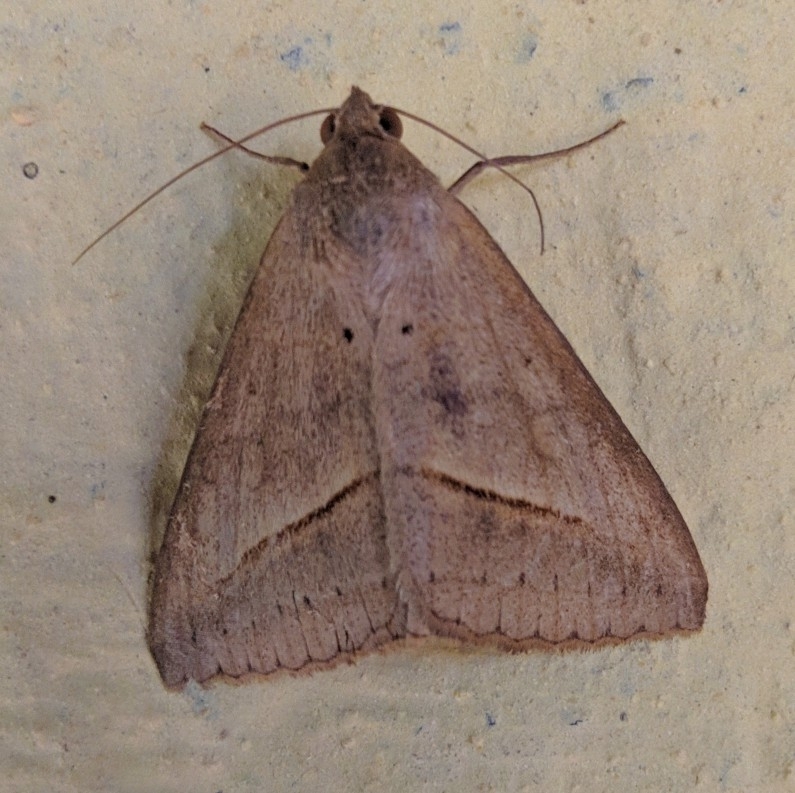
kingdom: Animalia
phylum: Arthropoda
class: Insecta
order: Lepidoptera
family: Erebidae
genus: Mocis
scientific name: Mocis frugalis
